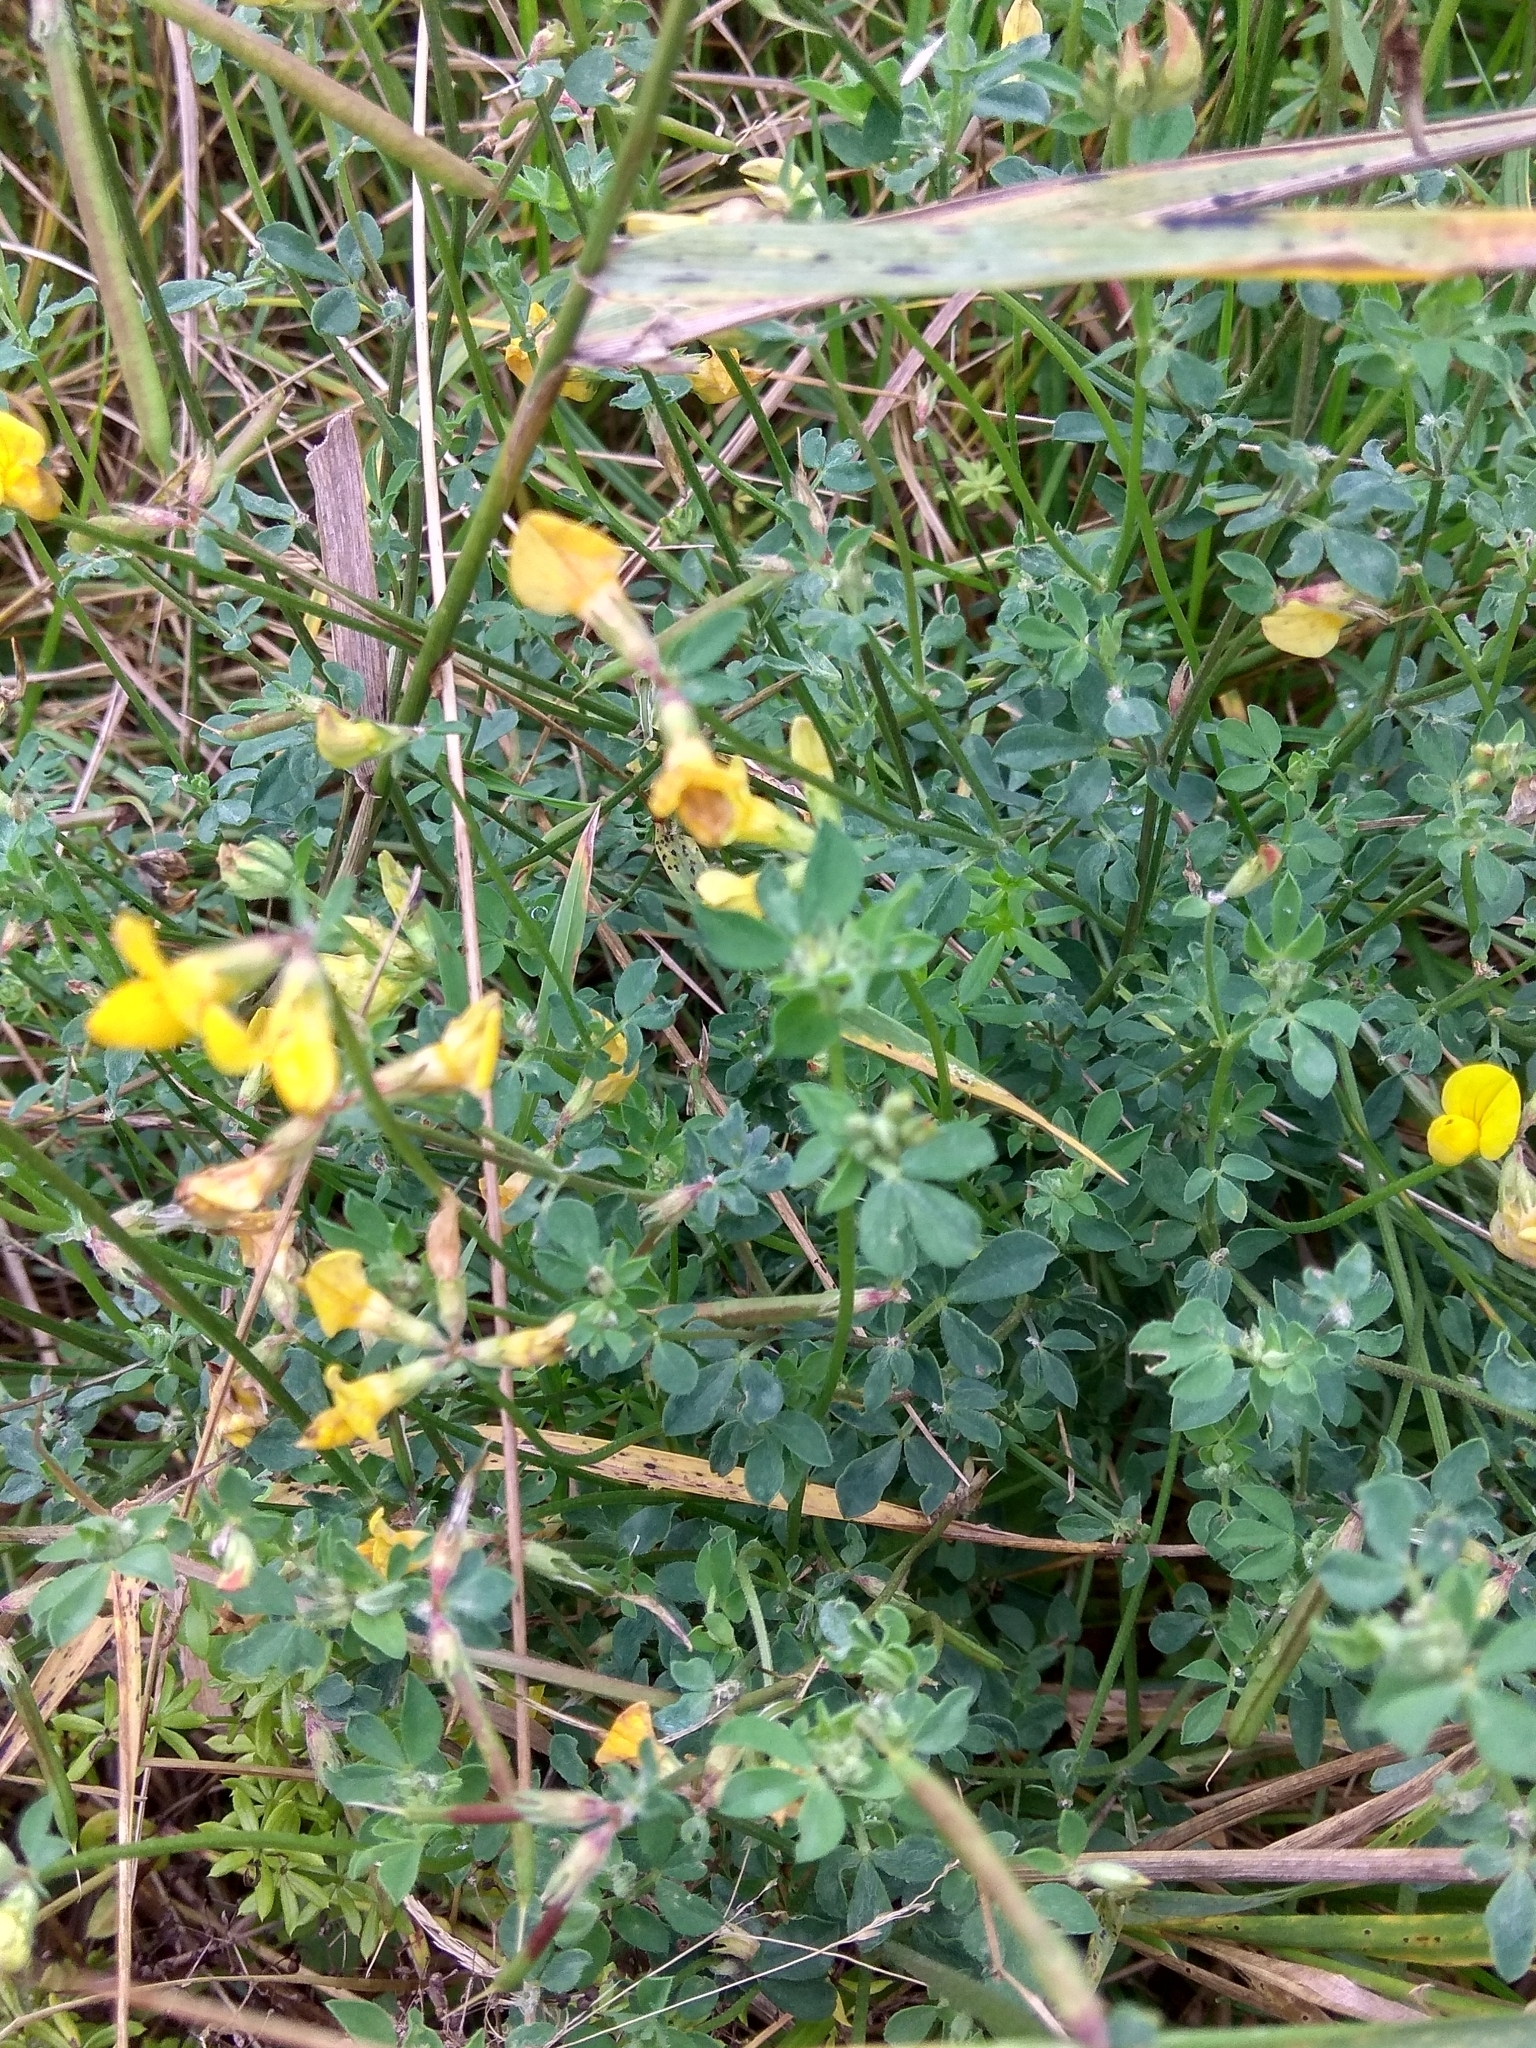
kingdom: Plantae
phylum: Tracheophyta
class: Magnoliopsida
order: Fabales
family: Fabaceae
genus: Lotus
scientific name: Lotus corniculatus
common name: Common bird's-foot-trefoil
